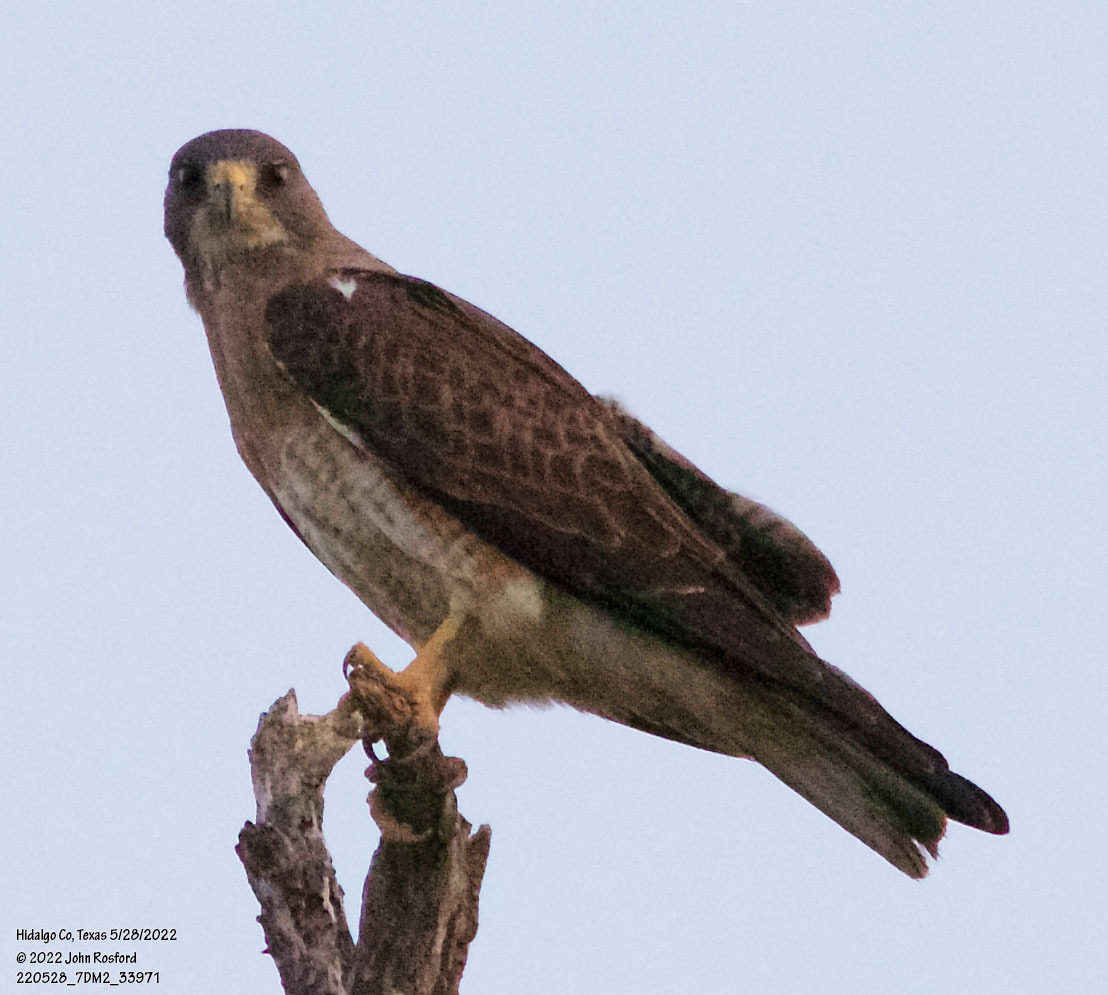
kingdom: Animalia
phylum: Chordata
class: Aves
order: Accipitriformes
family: Accipitridae
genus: Buteo
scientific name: Buteo swainsoni
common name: Swainson's hawk
